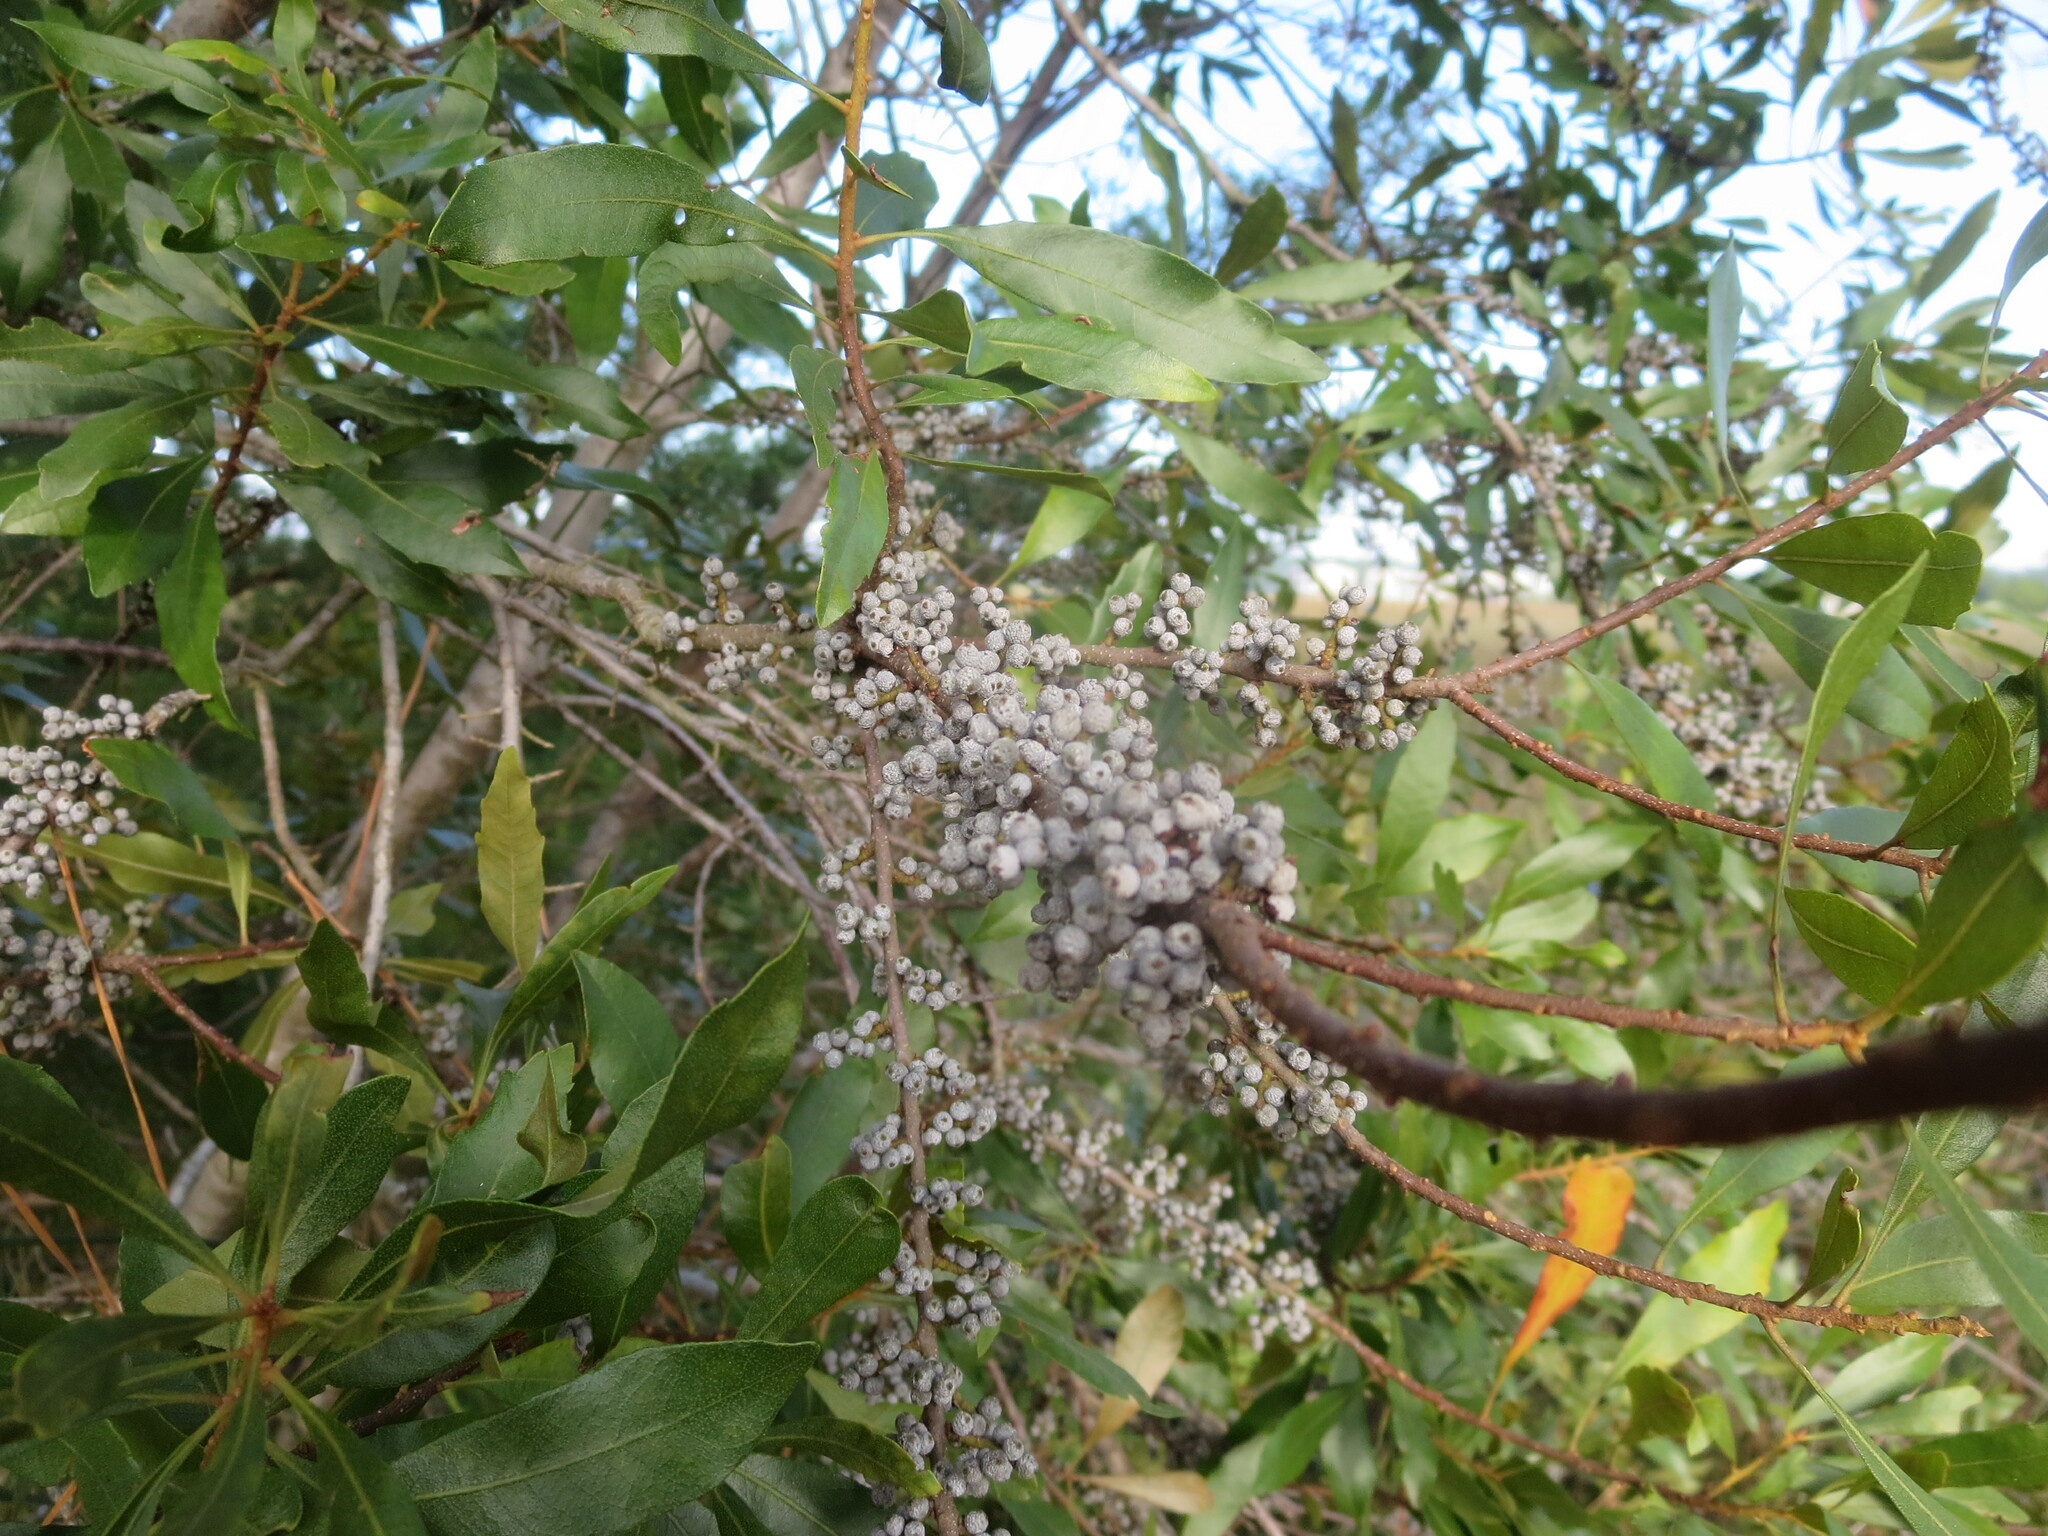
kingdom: Plantae
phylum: Tracheophyta
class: Magnoliopsida
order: Fagales
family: Myricaceae
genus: Morella
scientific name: Morella cerifera
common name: Wax myrtle
